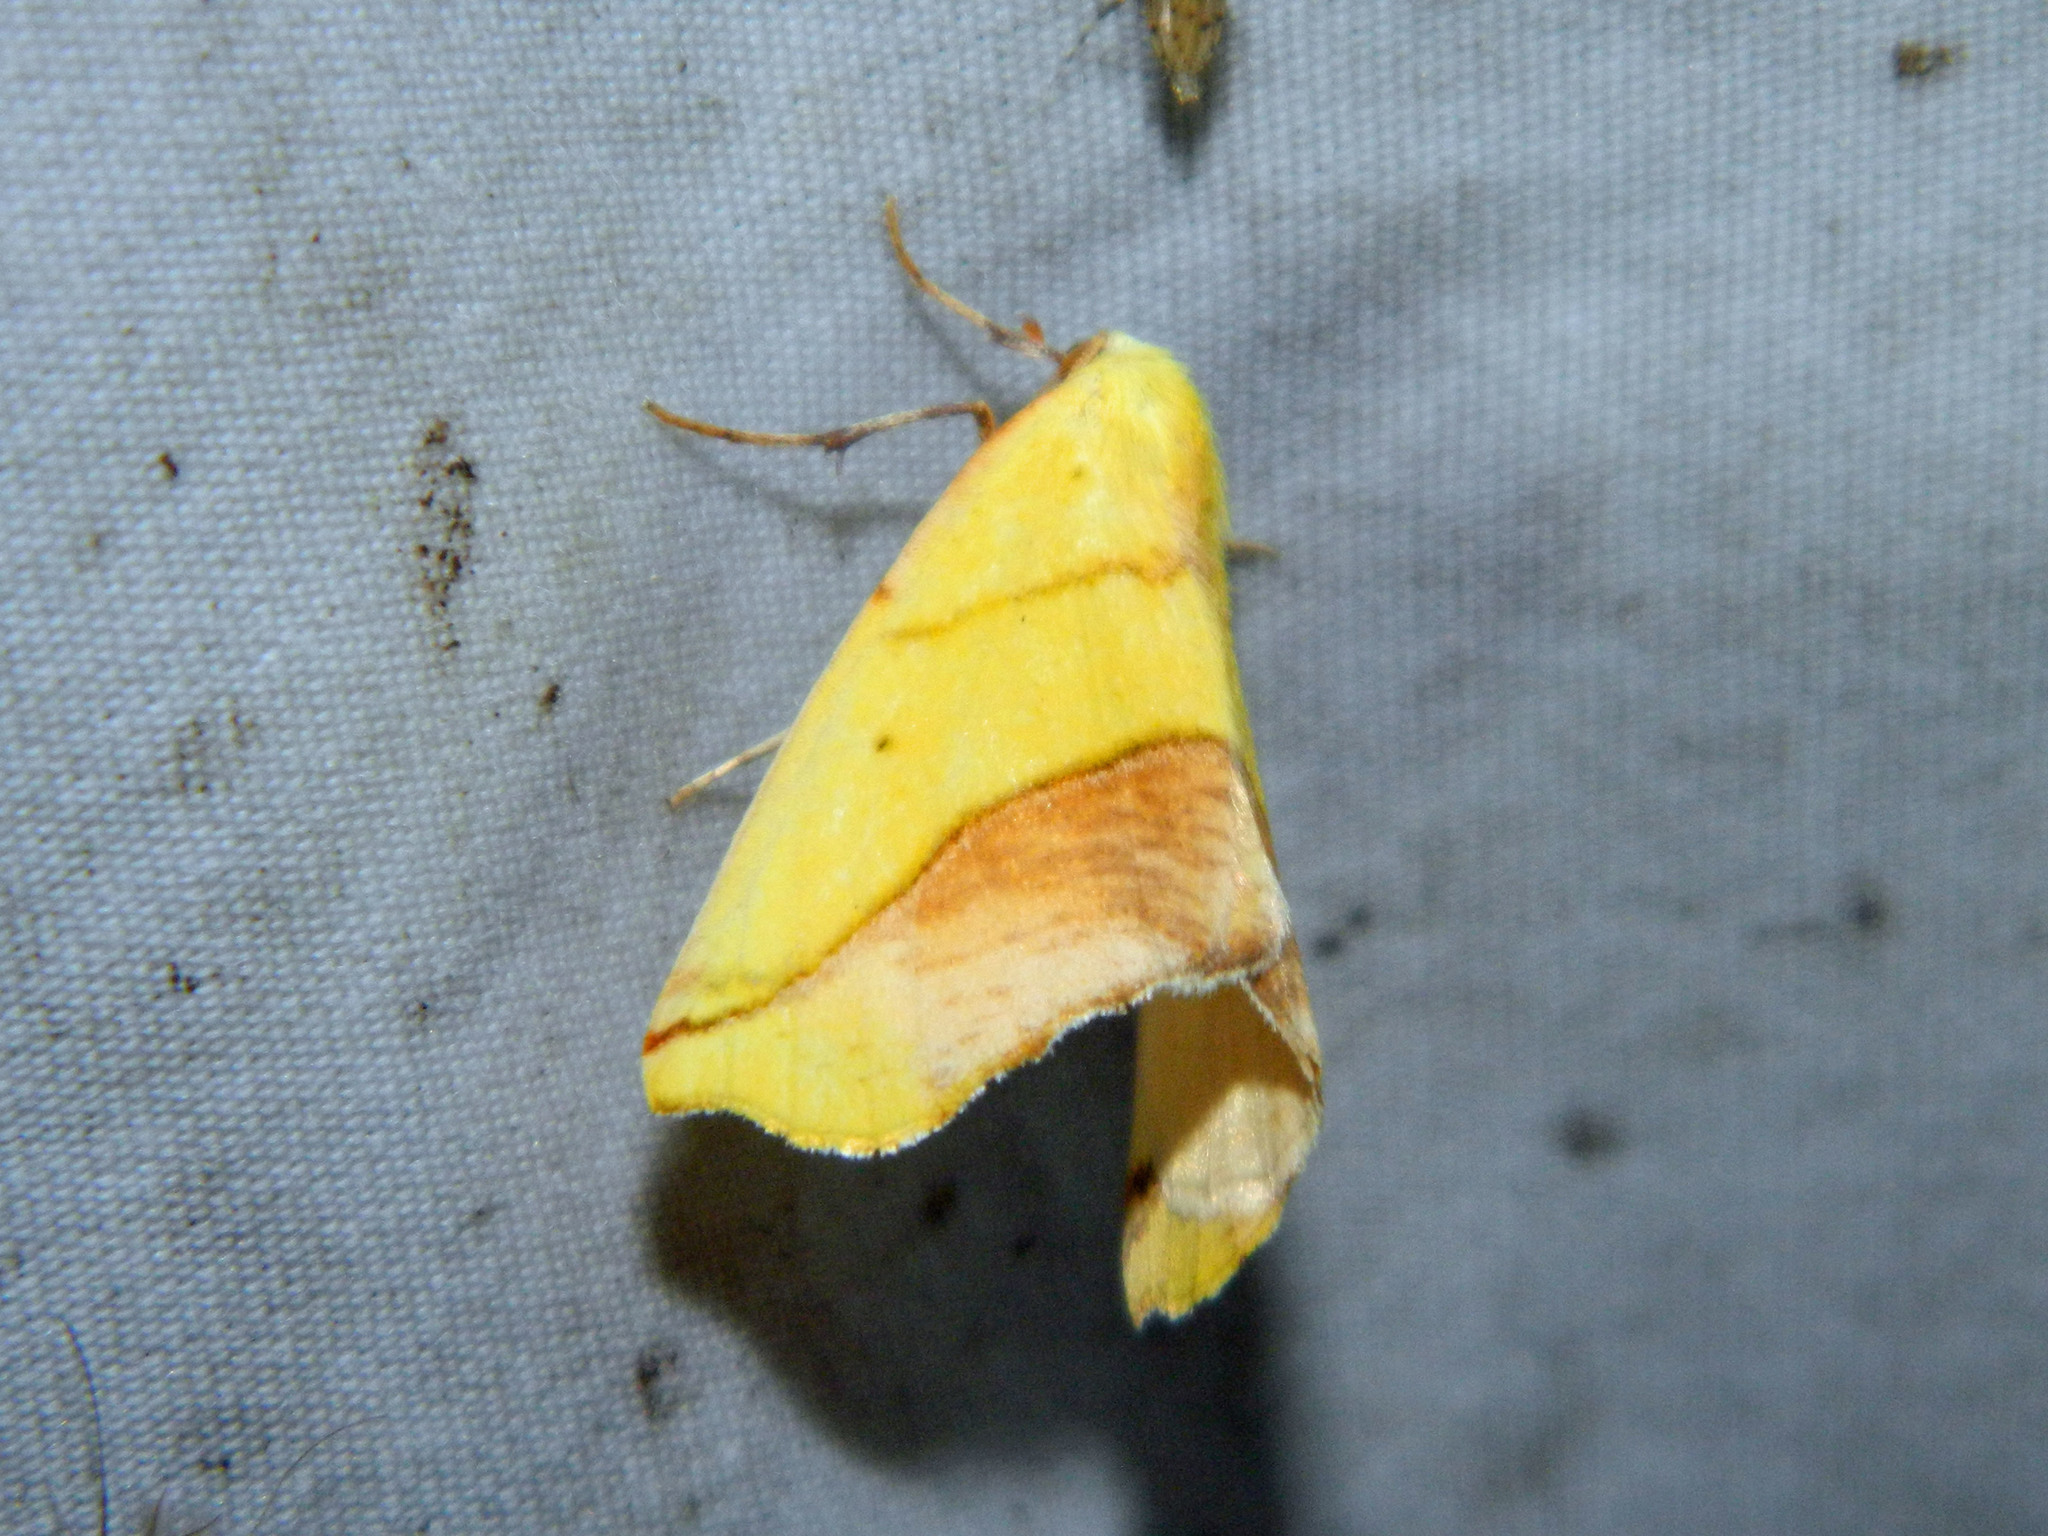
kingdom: Animalia
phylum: Arthropoda
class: Insecta
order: Lepidoptera
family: Geometridae
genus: Sicya
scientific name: Sicya macularia
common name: Sharp-lined yellow
